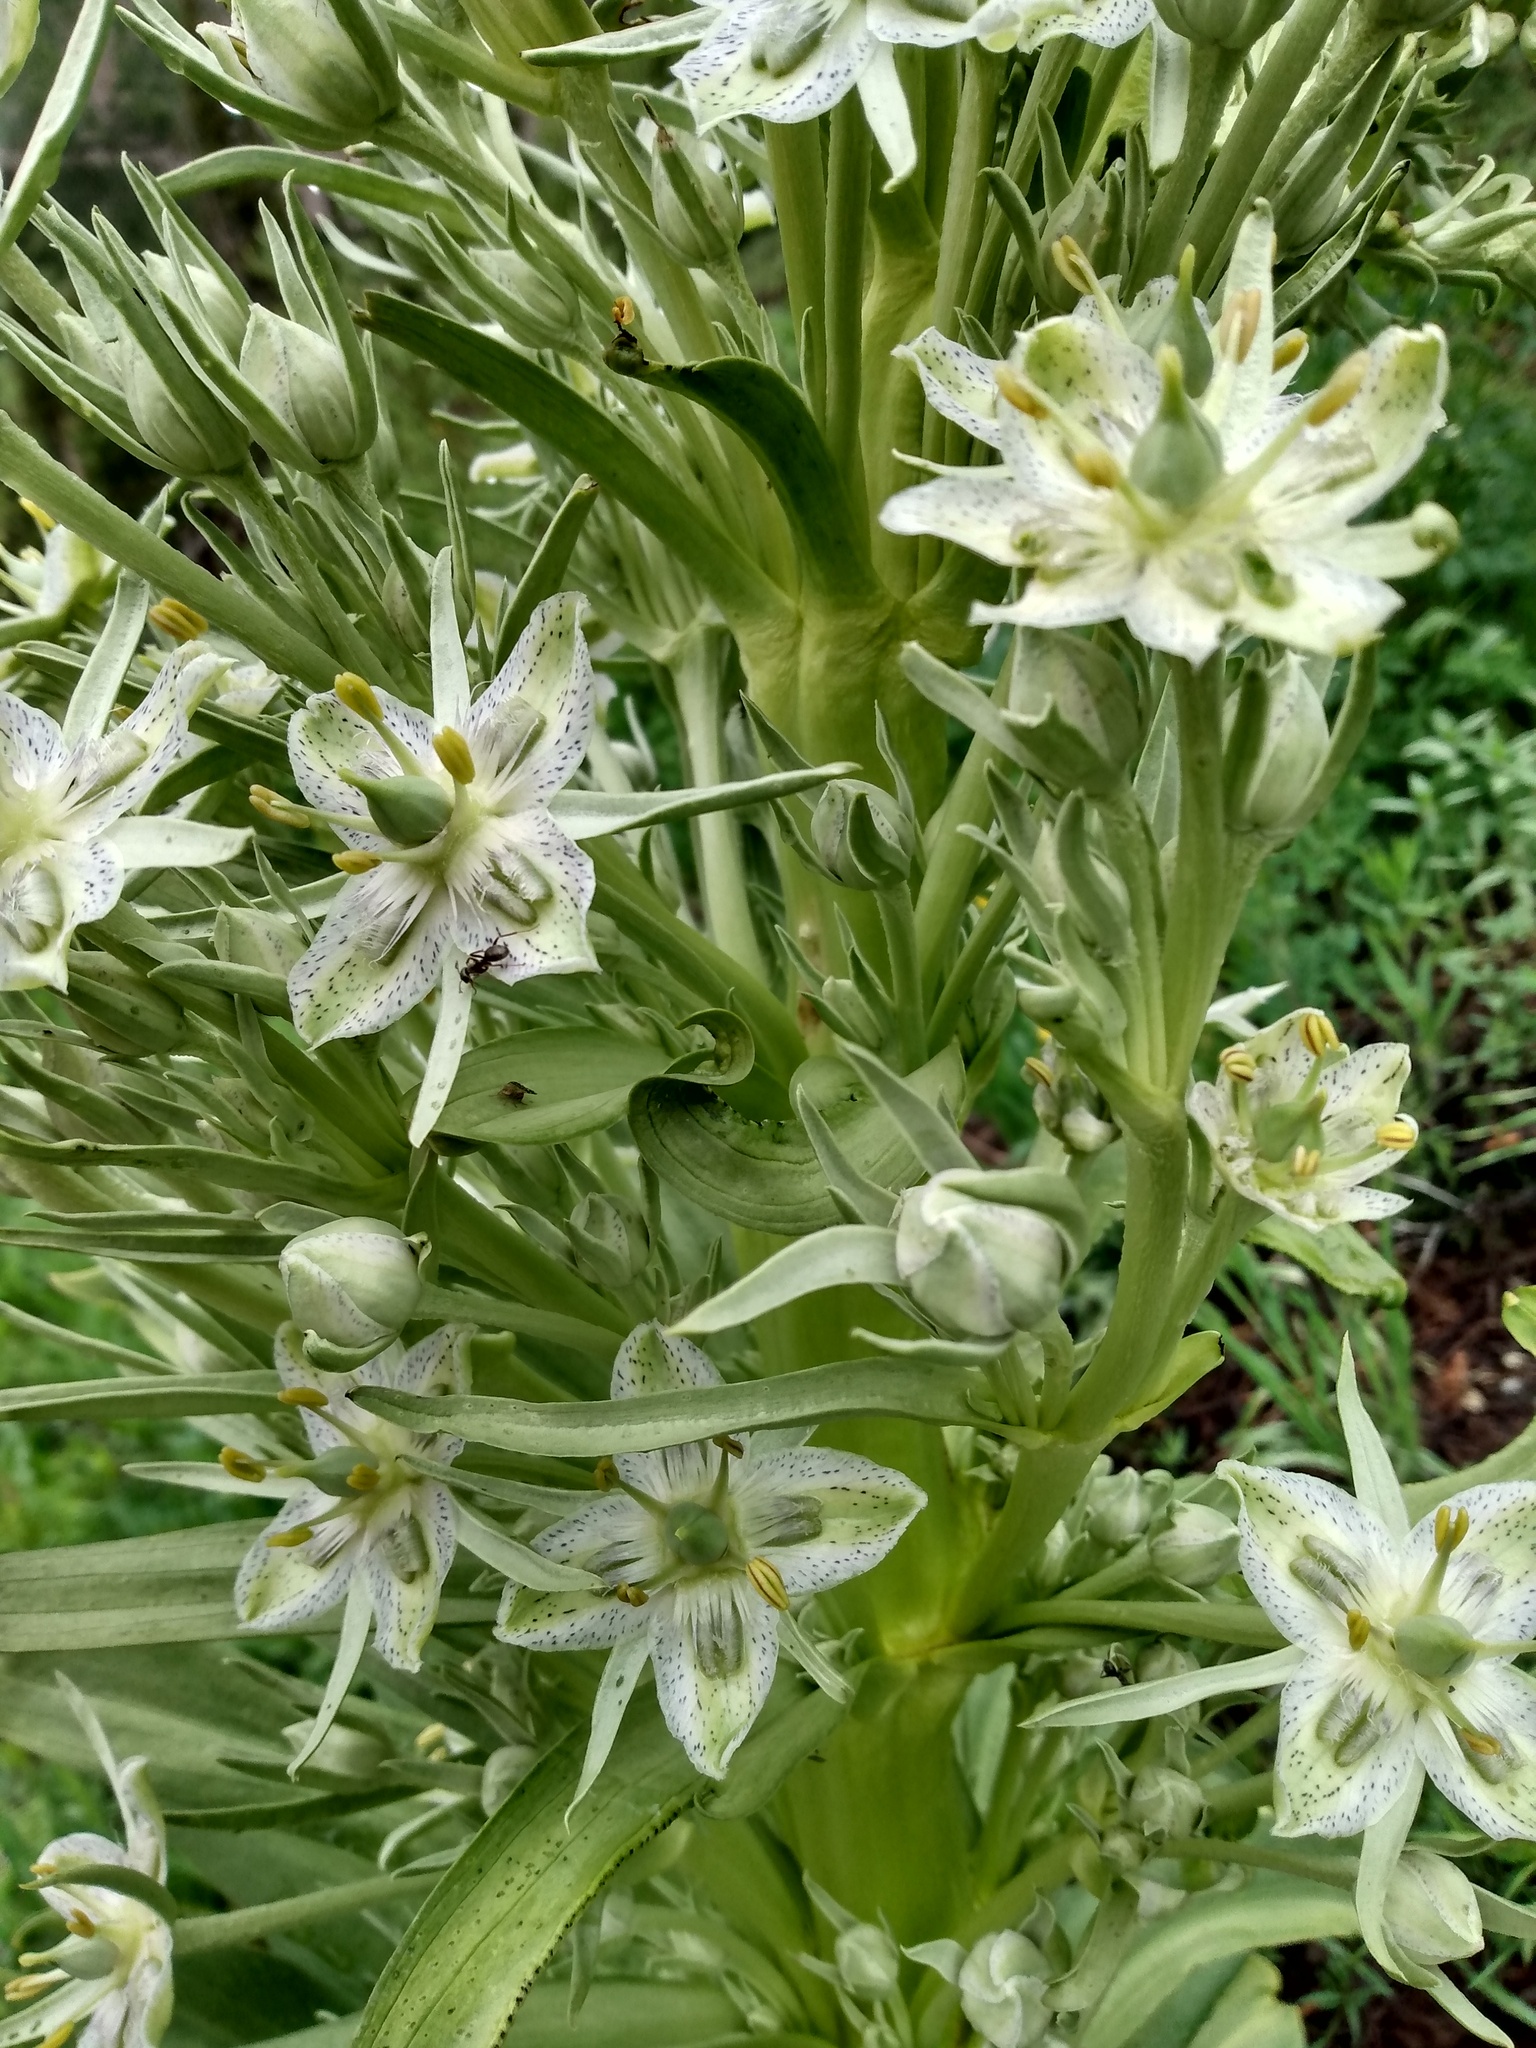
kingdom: Plantae
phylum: Tracheophyta
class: Magnoliopsida
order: Gentianales
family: Gentianaceae
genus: Frasera
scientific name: Frasera speciosa
